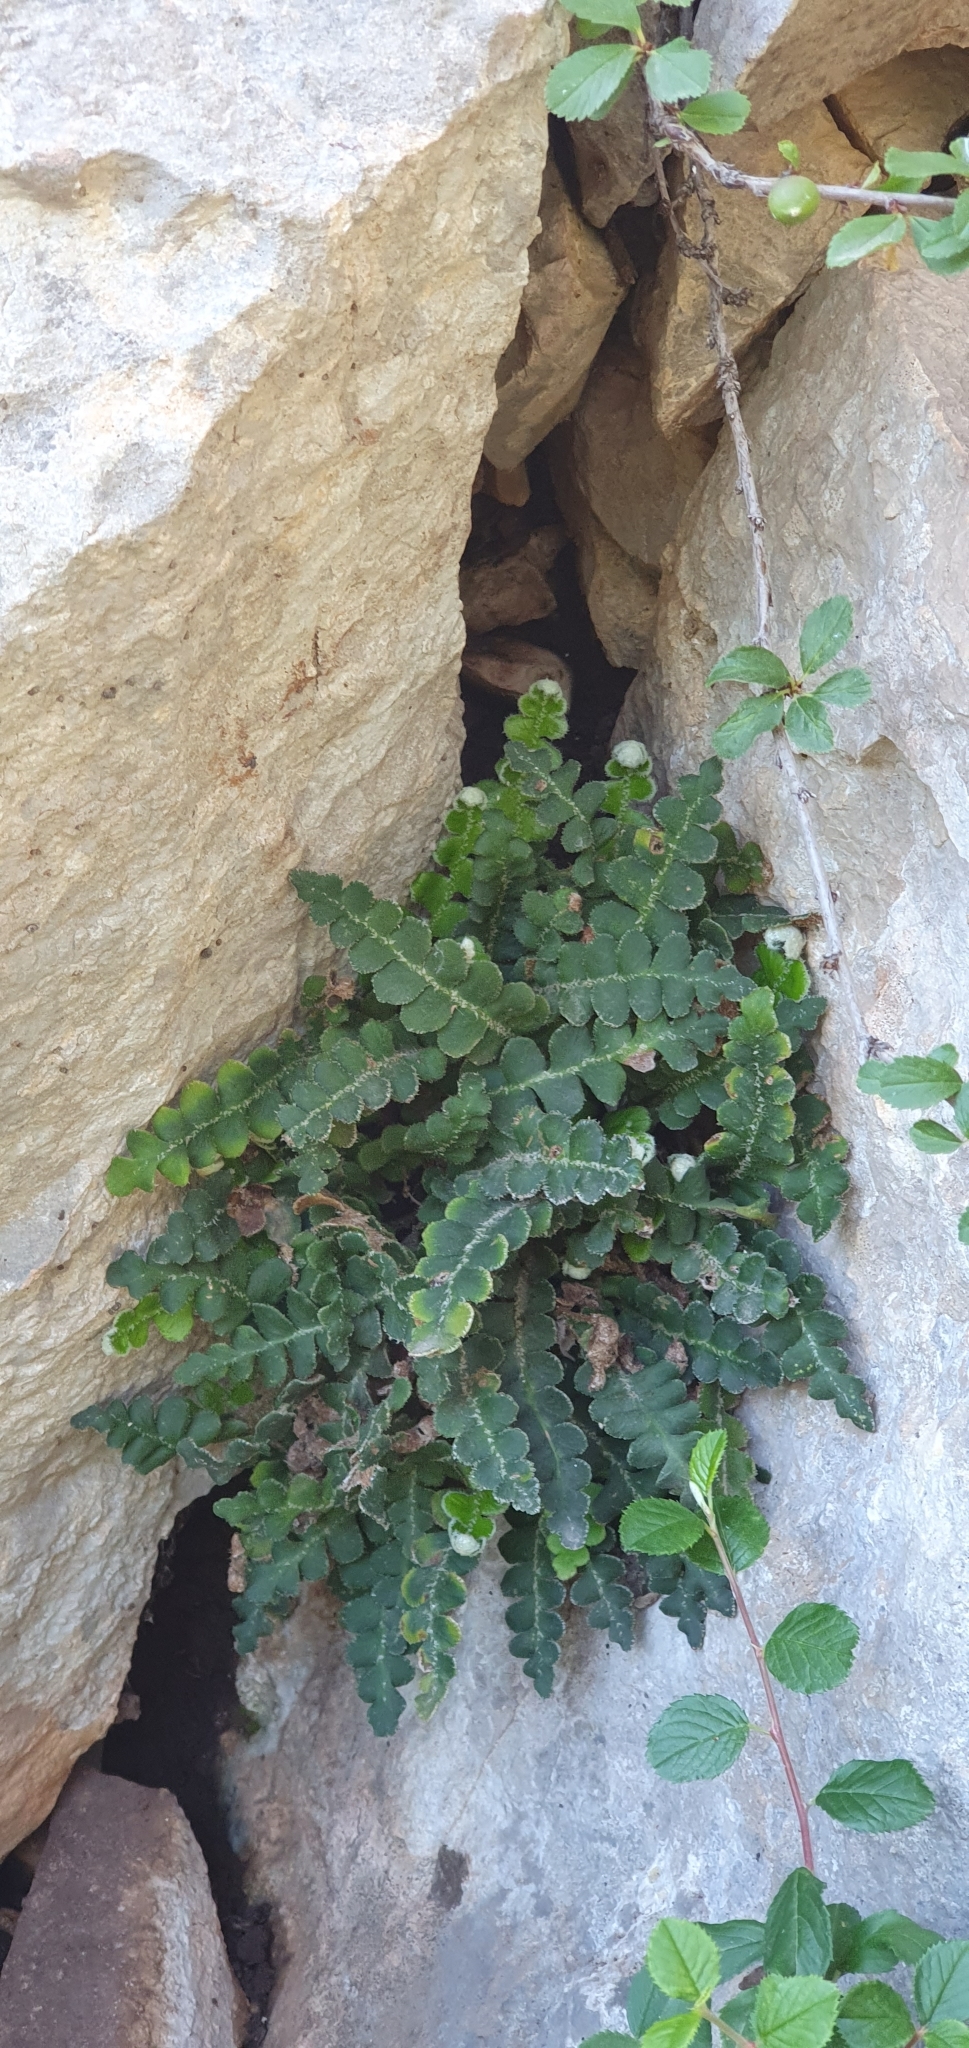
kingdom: Plantae
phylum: Tracheophyta
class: Polypodiopsida
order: Polypodiales
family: Aspleniaceae
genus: Asplenium
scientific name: Asplenium ceterach
